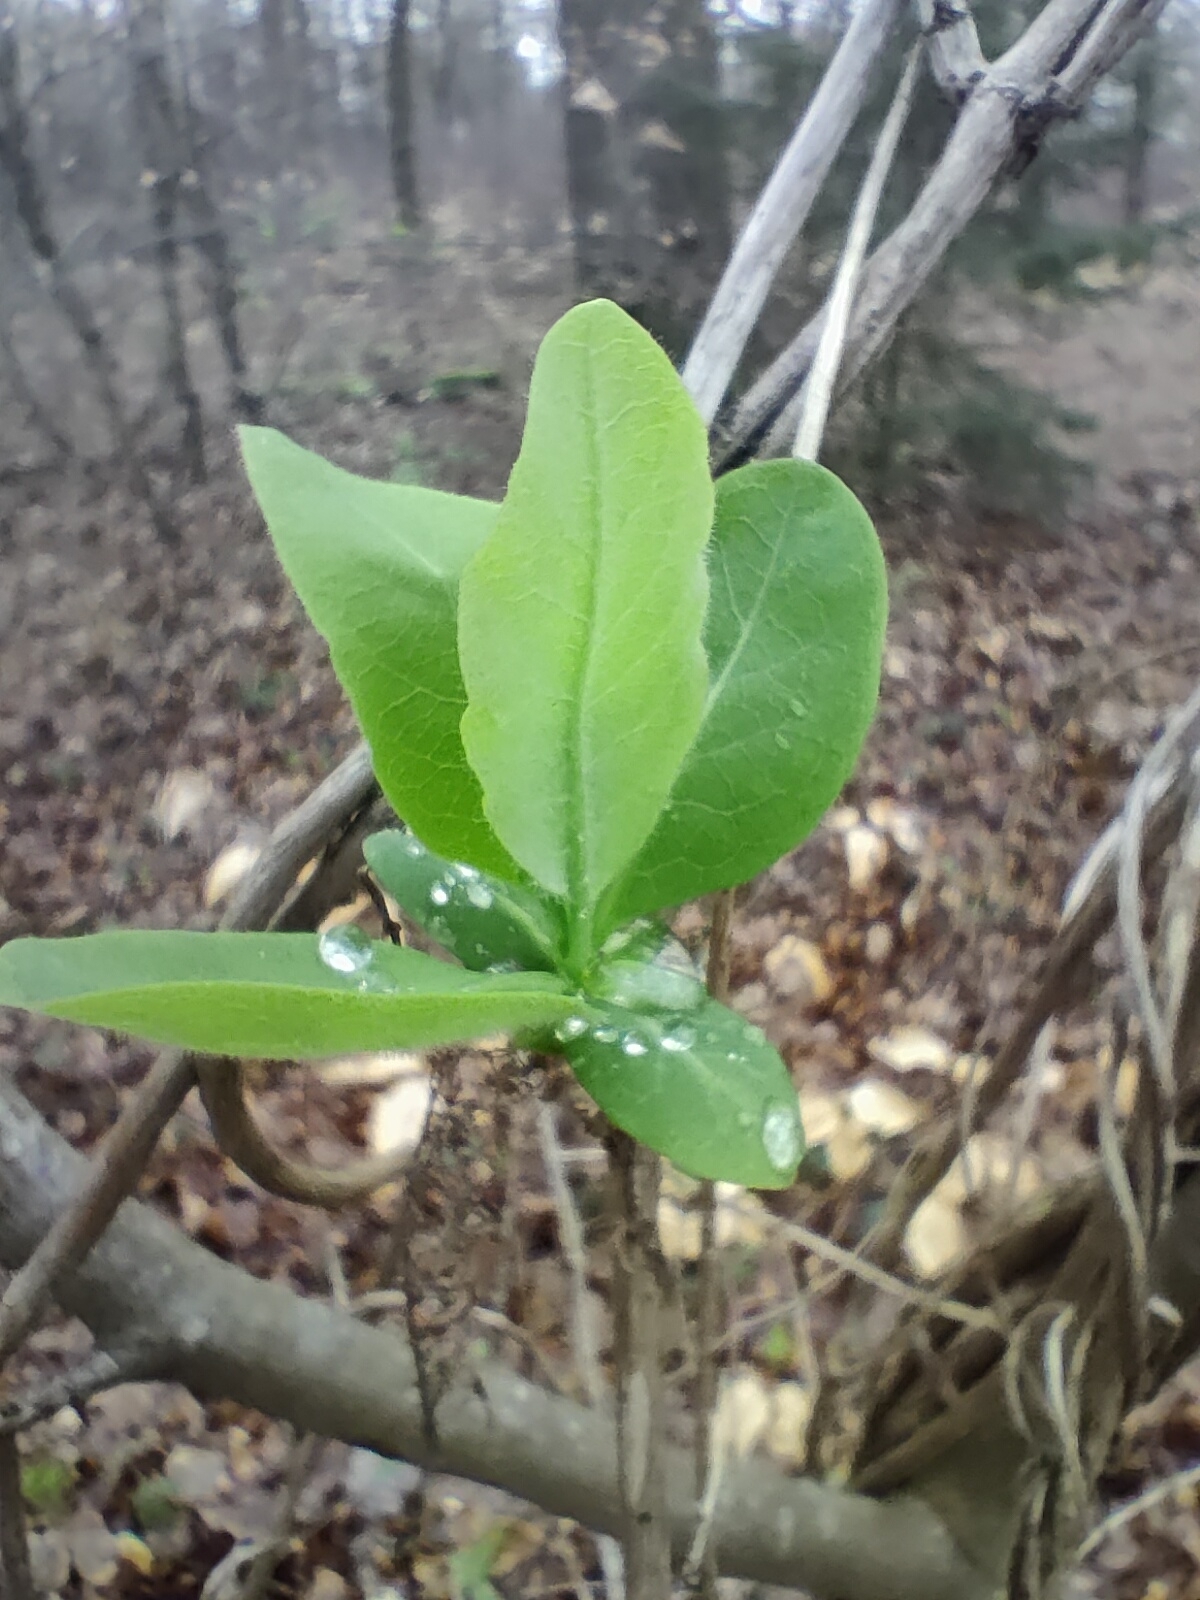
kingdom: Plantae
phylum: Tracheophyta
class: Magnoliopsida
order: Dipsacales
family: Caprifoliaceae
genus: Lonicera
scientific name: Lonicera periclymenum
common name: European honeysuckle
